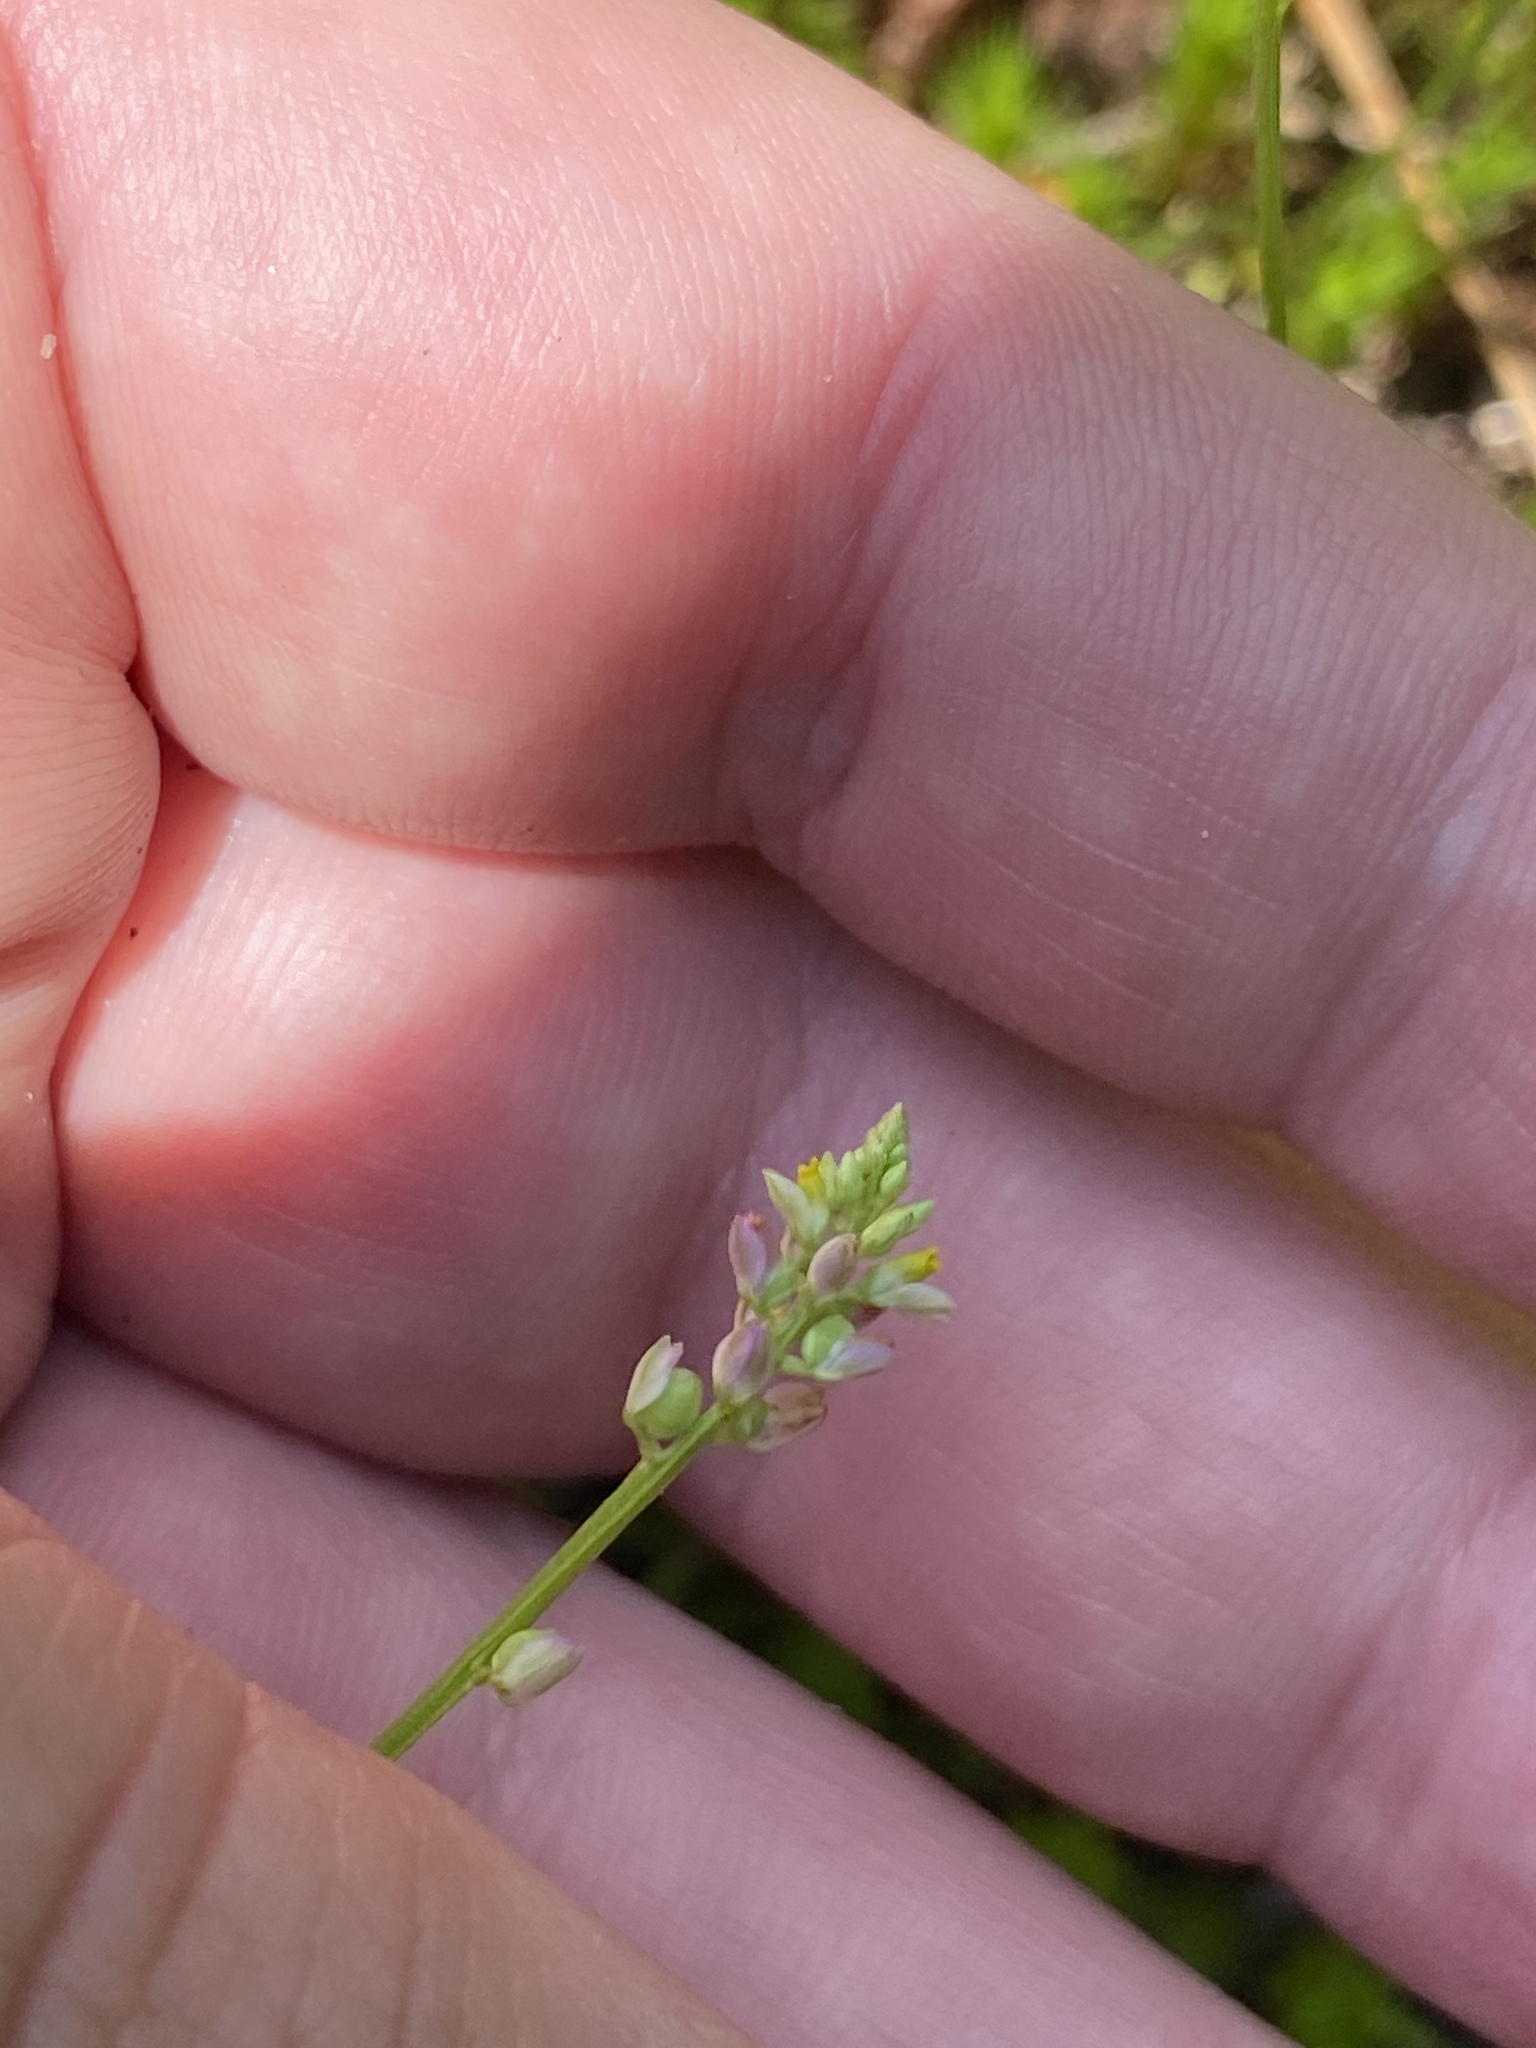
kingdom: Plantae
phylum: Tracheophyta
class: Magnoliopsida
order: Fabales
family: Polygalaceae
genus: Polygala
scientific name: Polygala nuttallii
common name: Nuttall's milkwort
